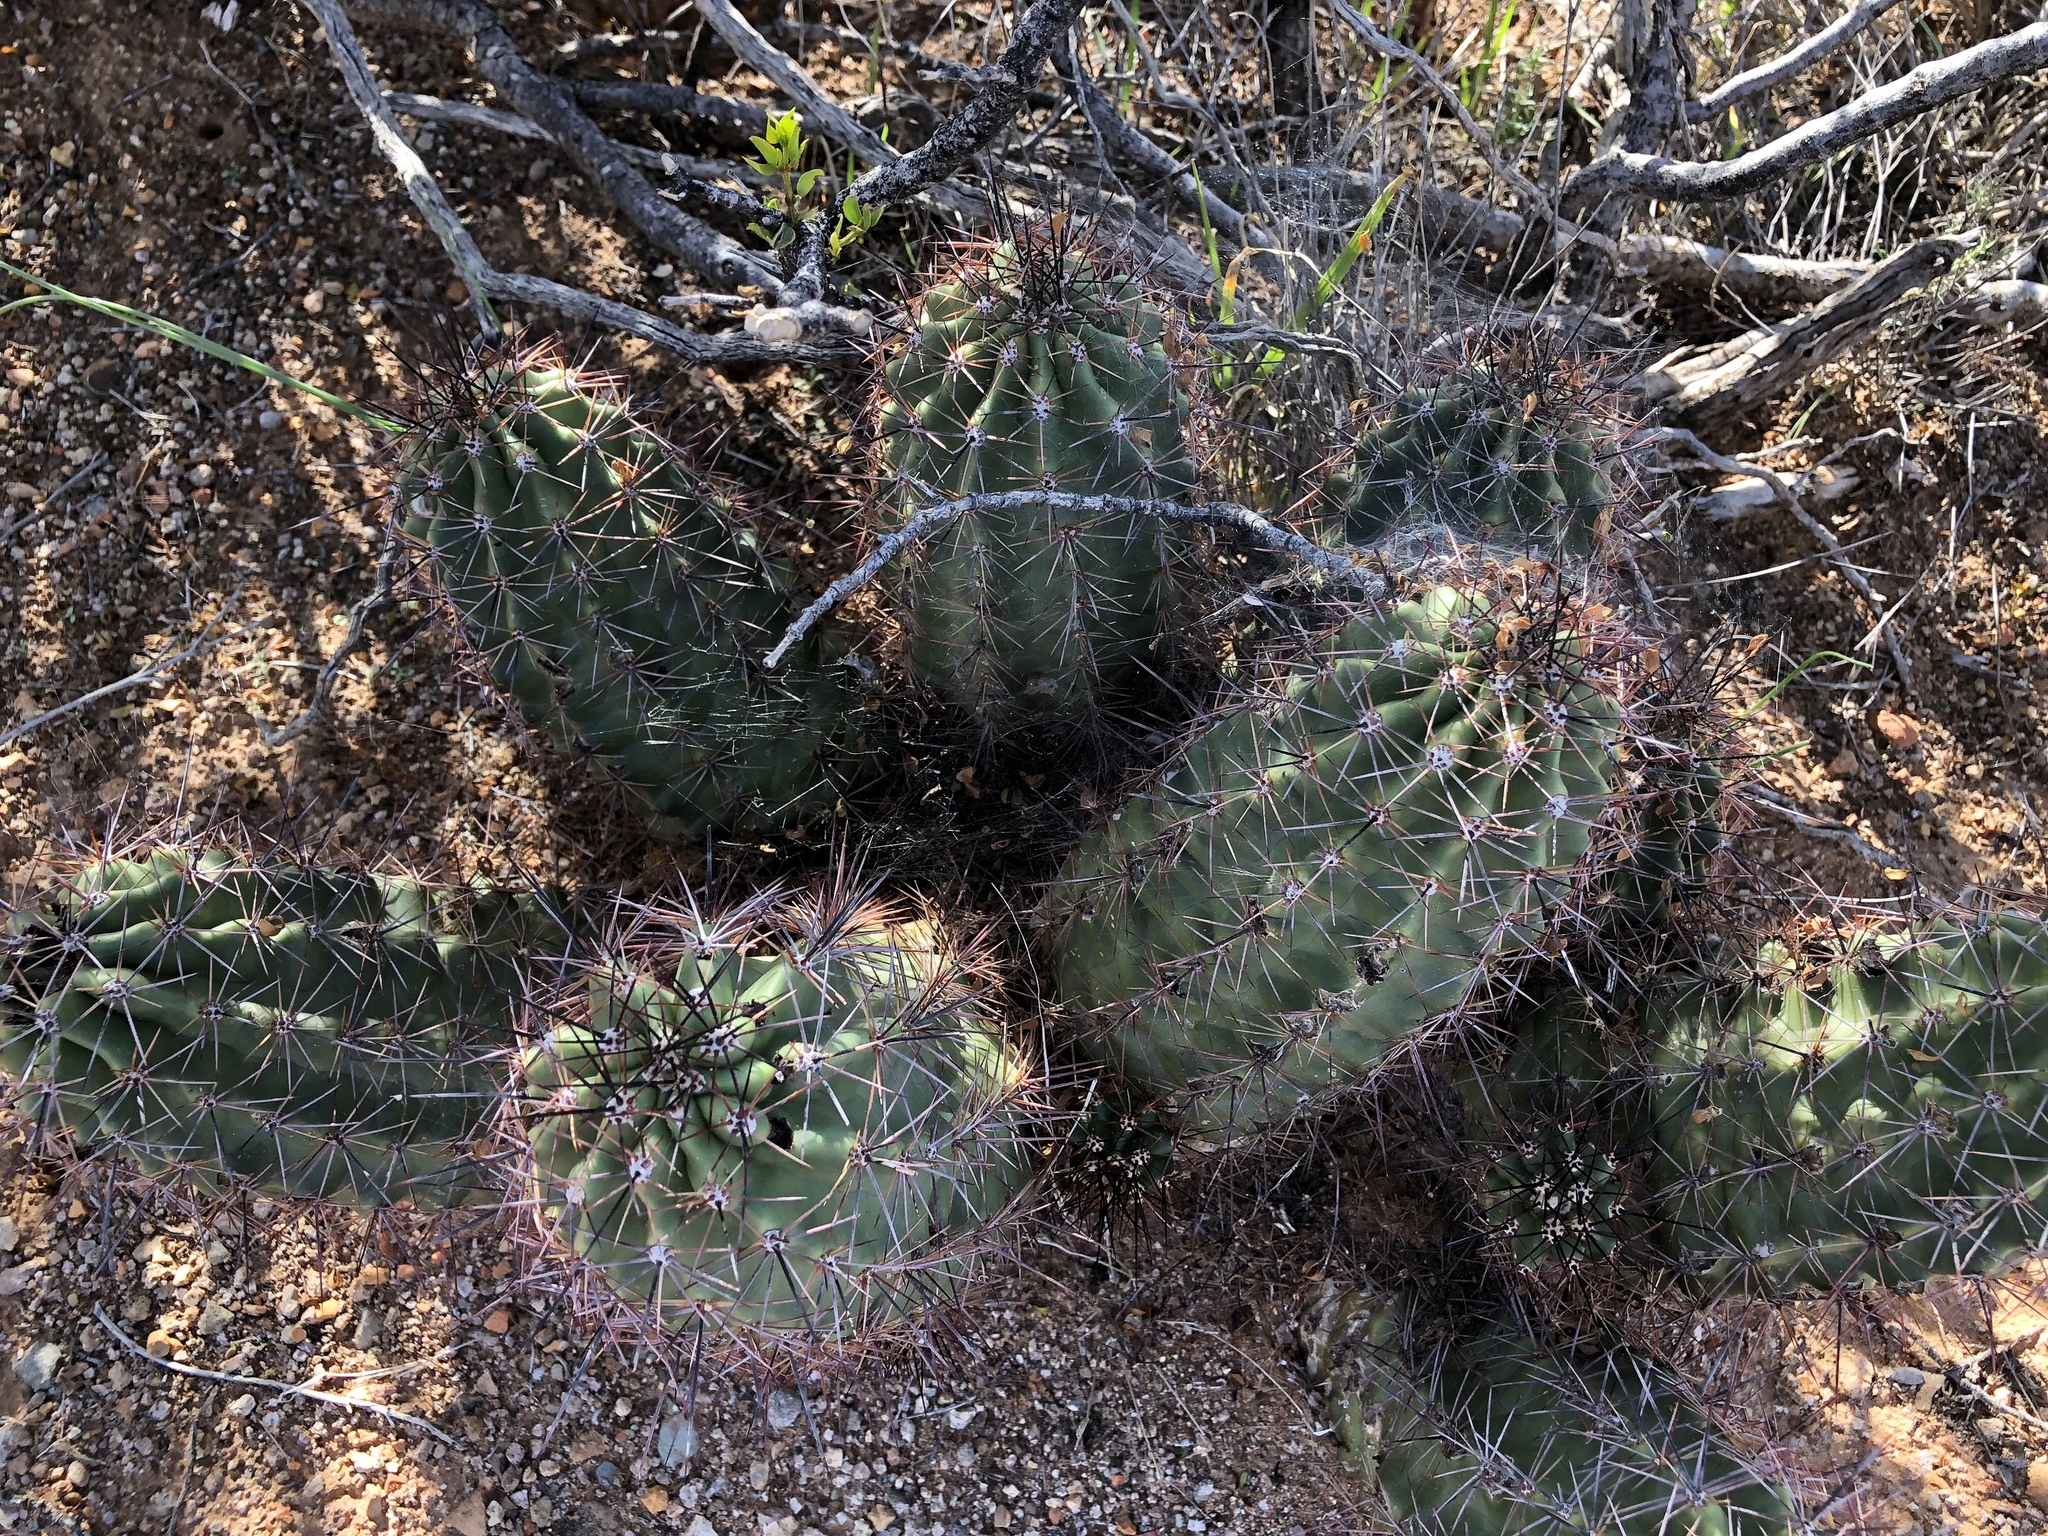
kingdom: Plantae
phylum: Tracheophyta
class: Magnoliopsida
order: Caryophyllales
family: Cactaceae
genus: Echinocereus
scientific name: Echinocereus coccineus
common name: Scarlet hedgehog cactus
